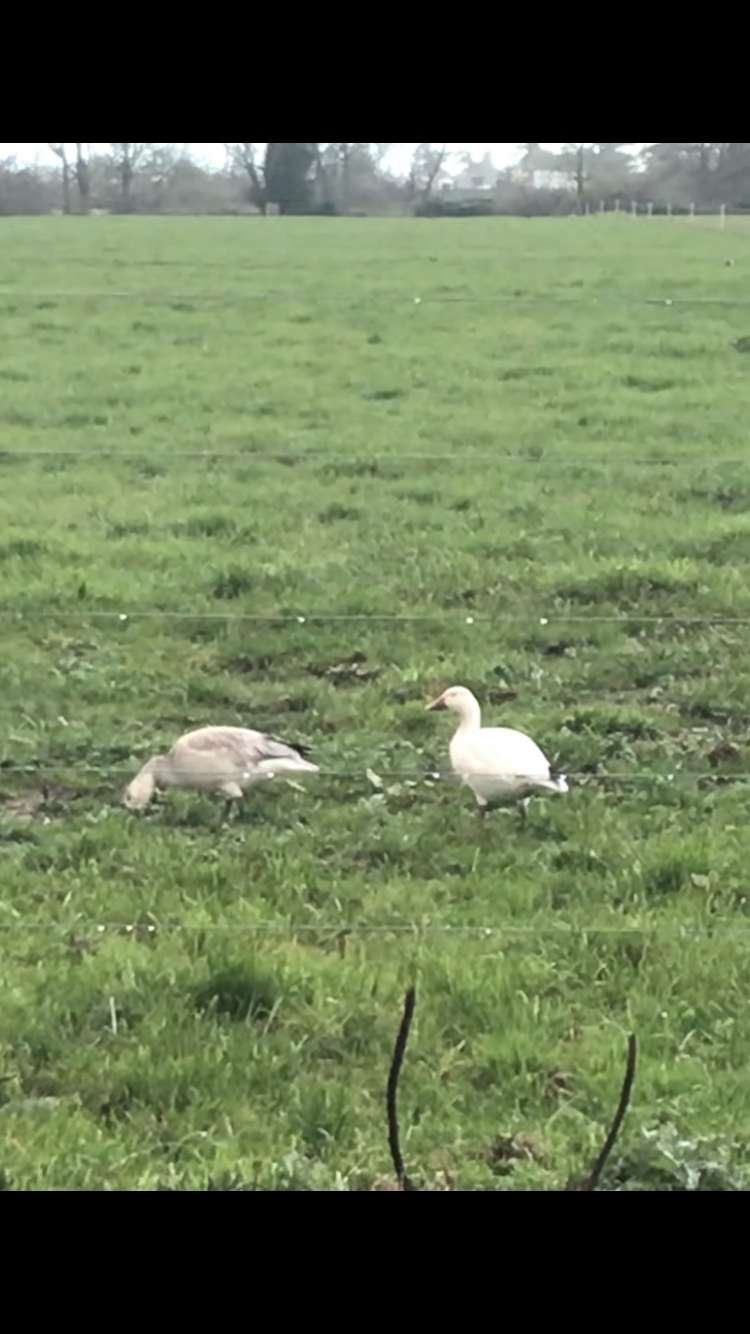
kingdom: Animalia
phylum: Chordata
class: Aves
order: Anseriformes
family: Anatidae
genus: Anser
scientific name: Anser caerulescens
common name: Snow goose
